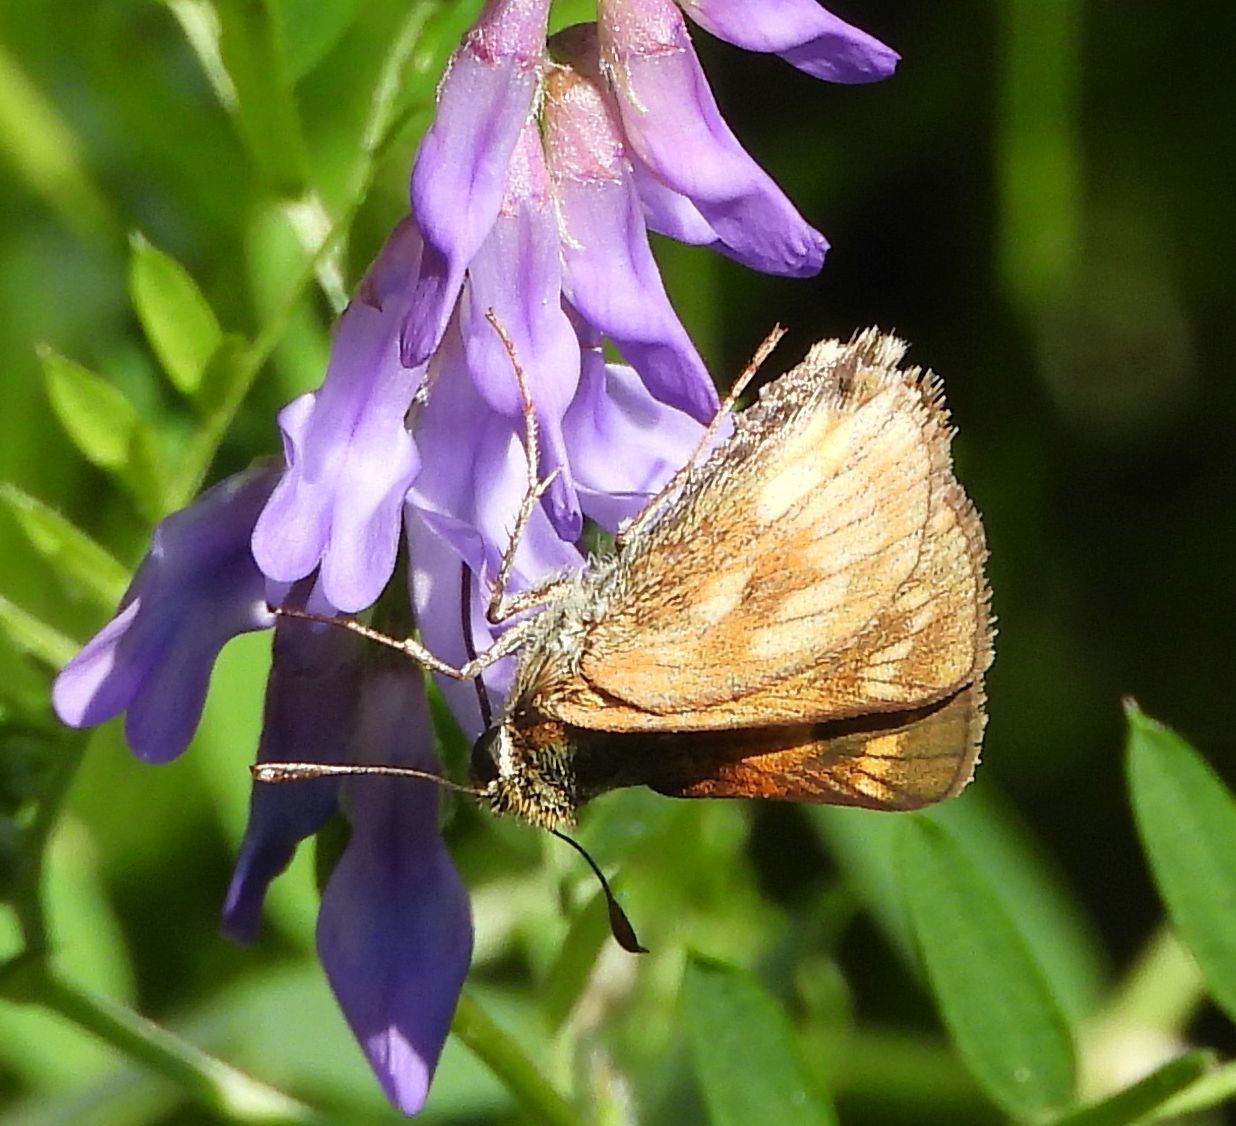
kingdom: Animalia
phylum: Arthropoda
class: Insecta
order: Lepidoptera
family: Hesperiidae
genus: Polites
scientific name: Polites mystic
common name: Long dash
